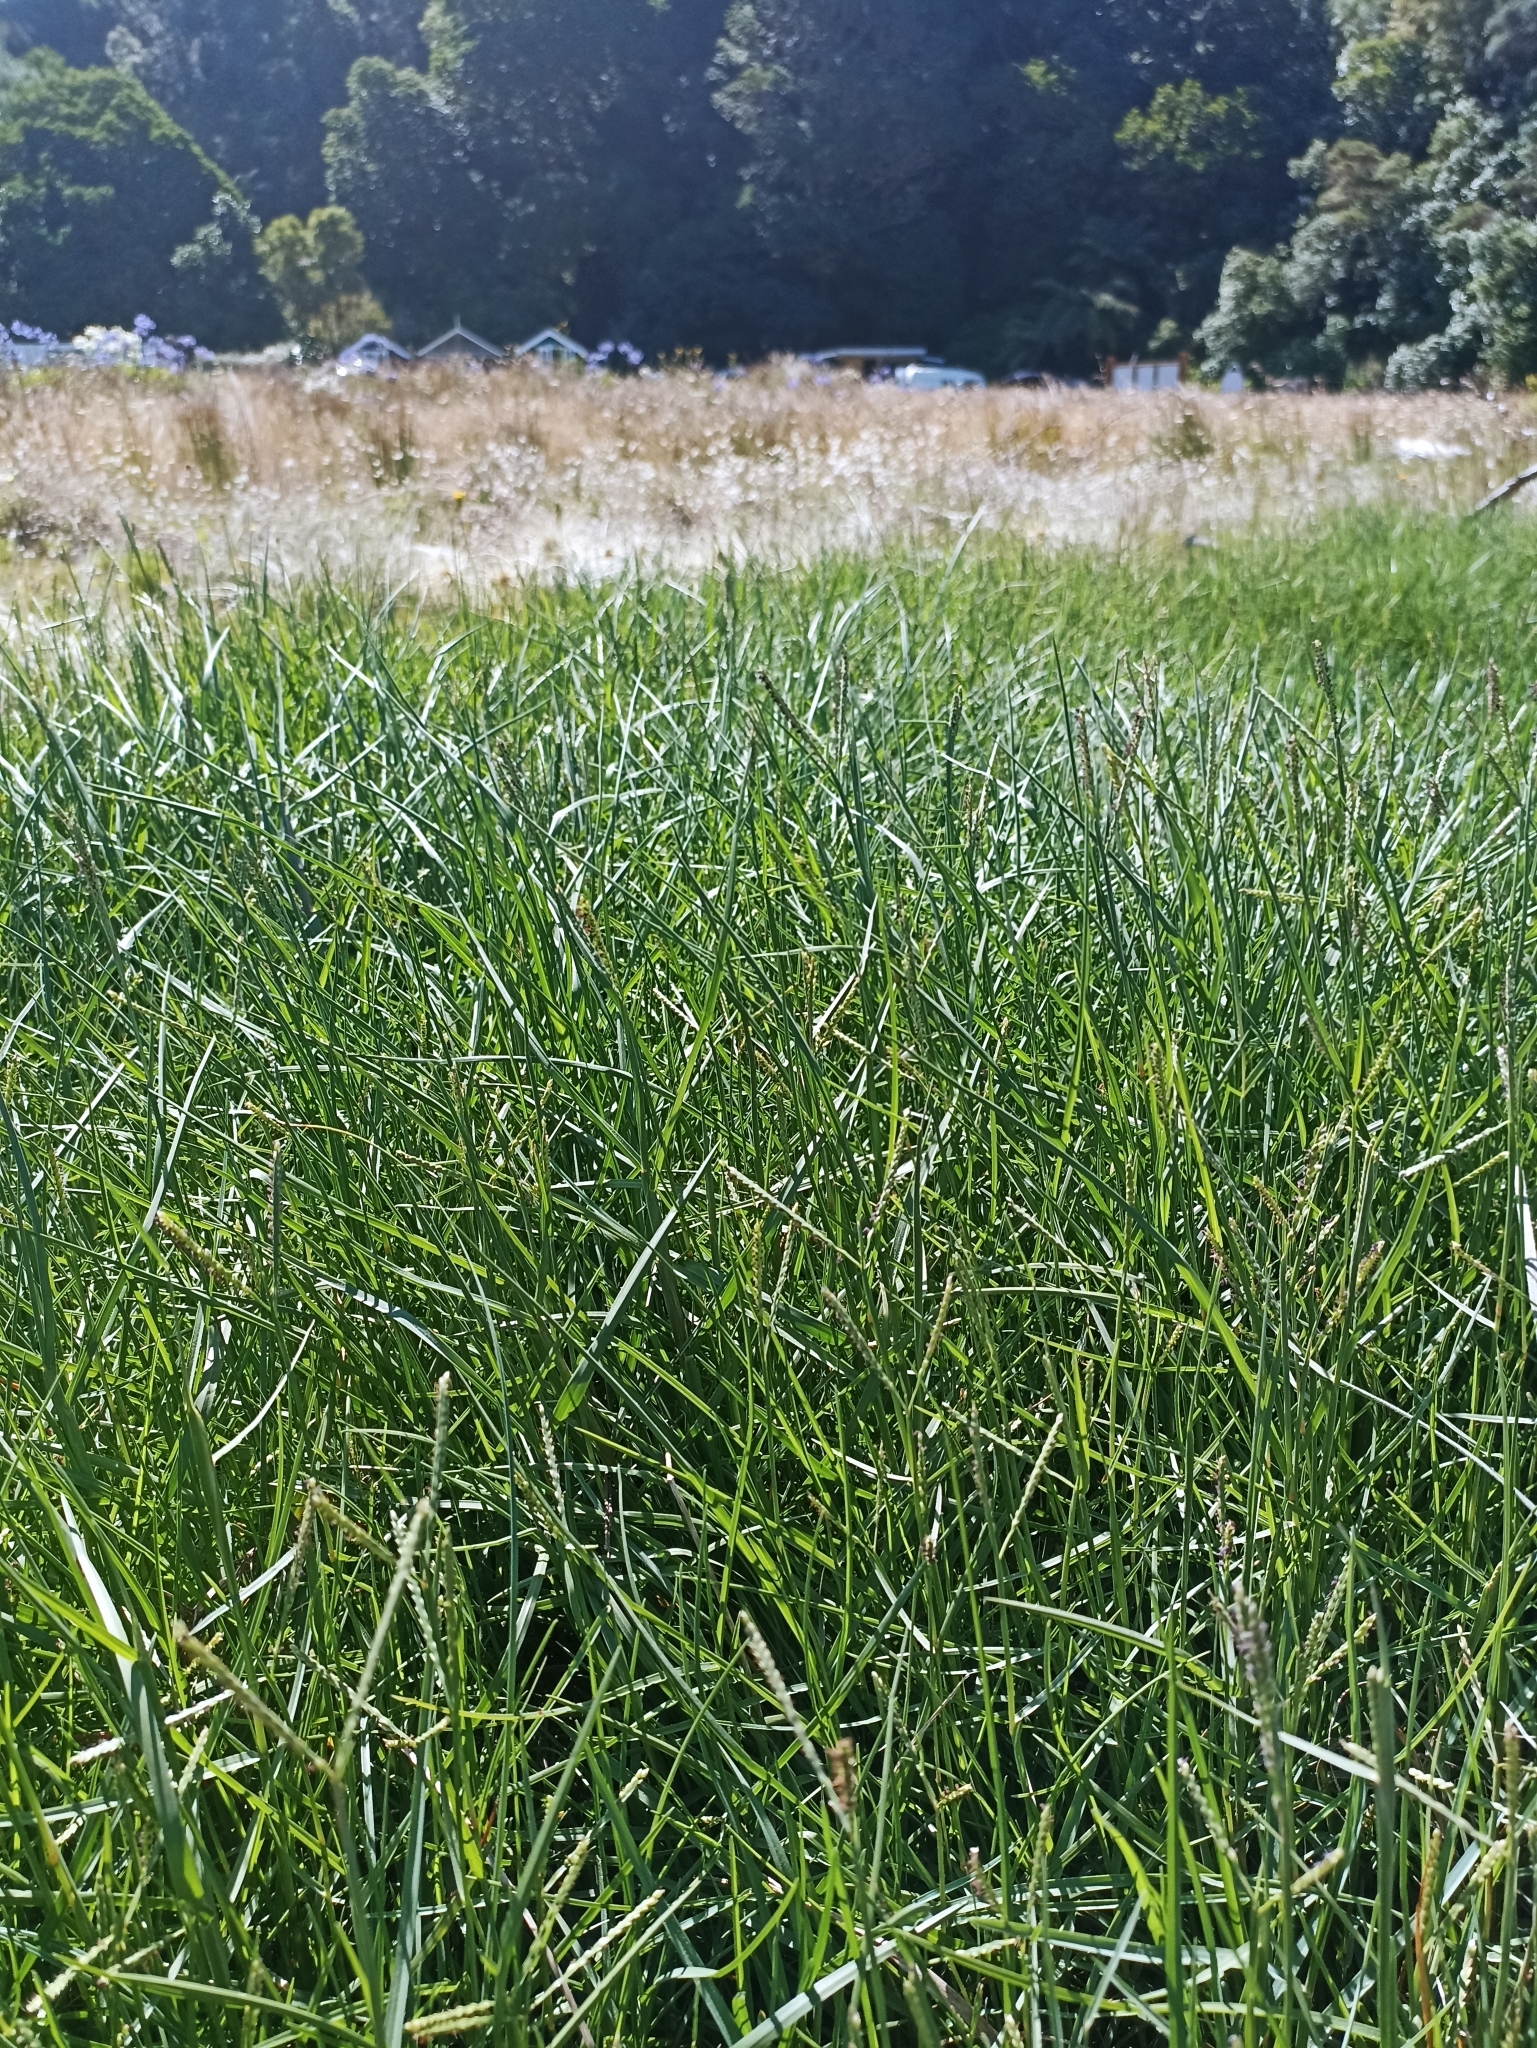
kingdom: Plantae
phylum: Tracheophyta
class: Liliopsida
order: Poales
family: Poaceae
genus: Paspalum
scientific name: Paspalum vaginatum
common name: Seashore paspalum
